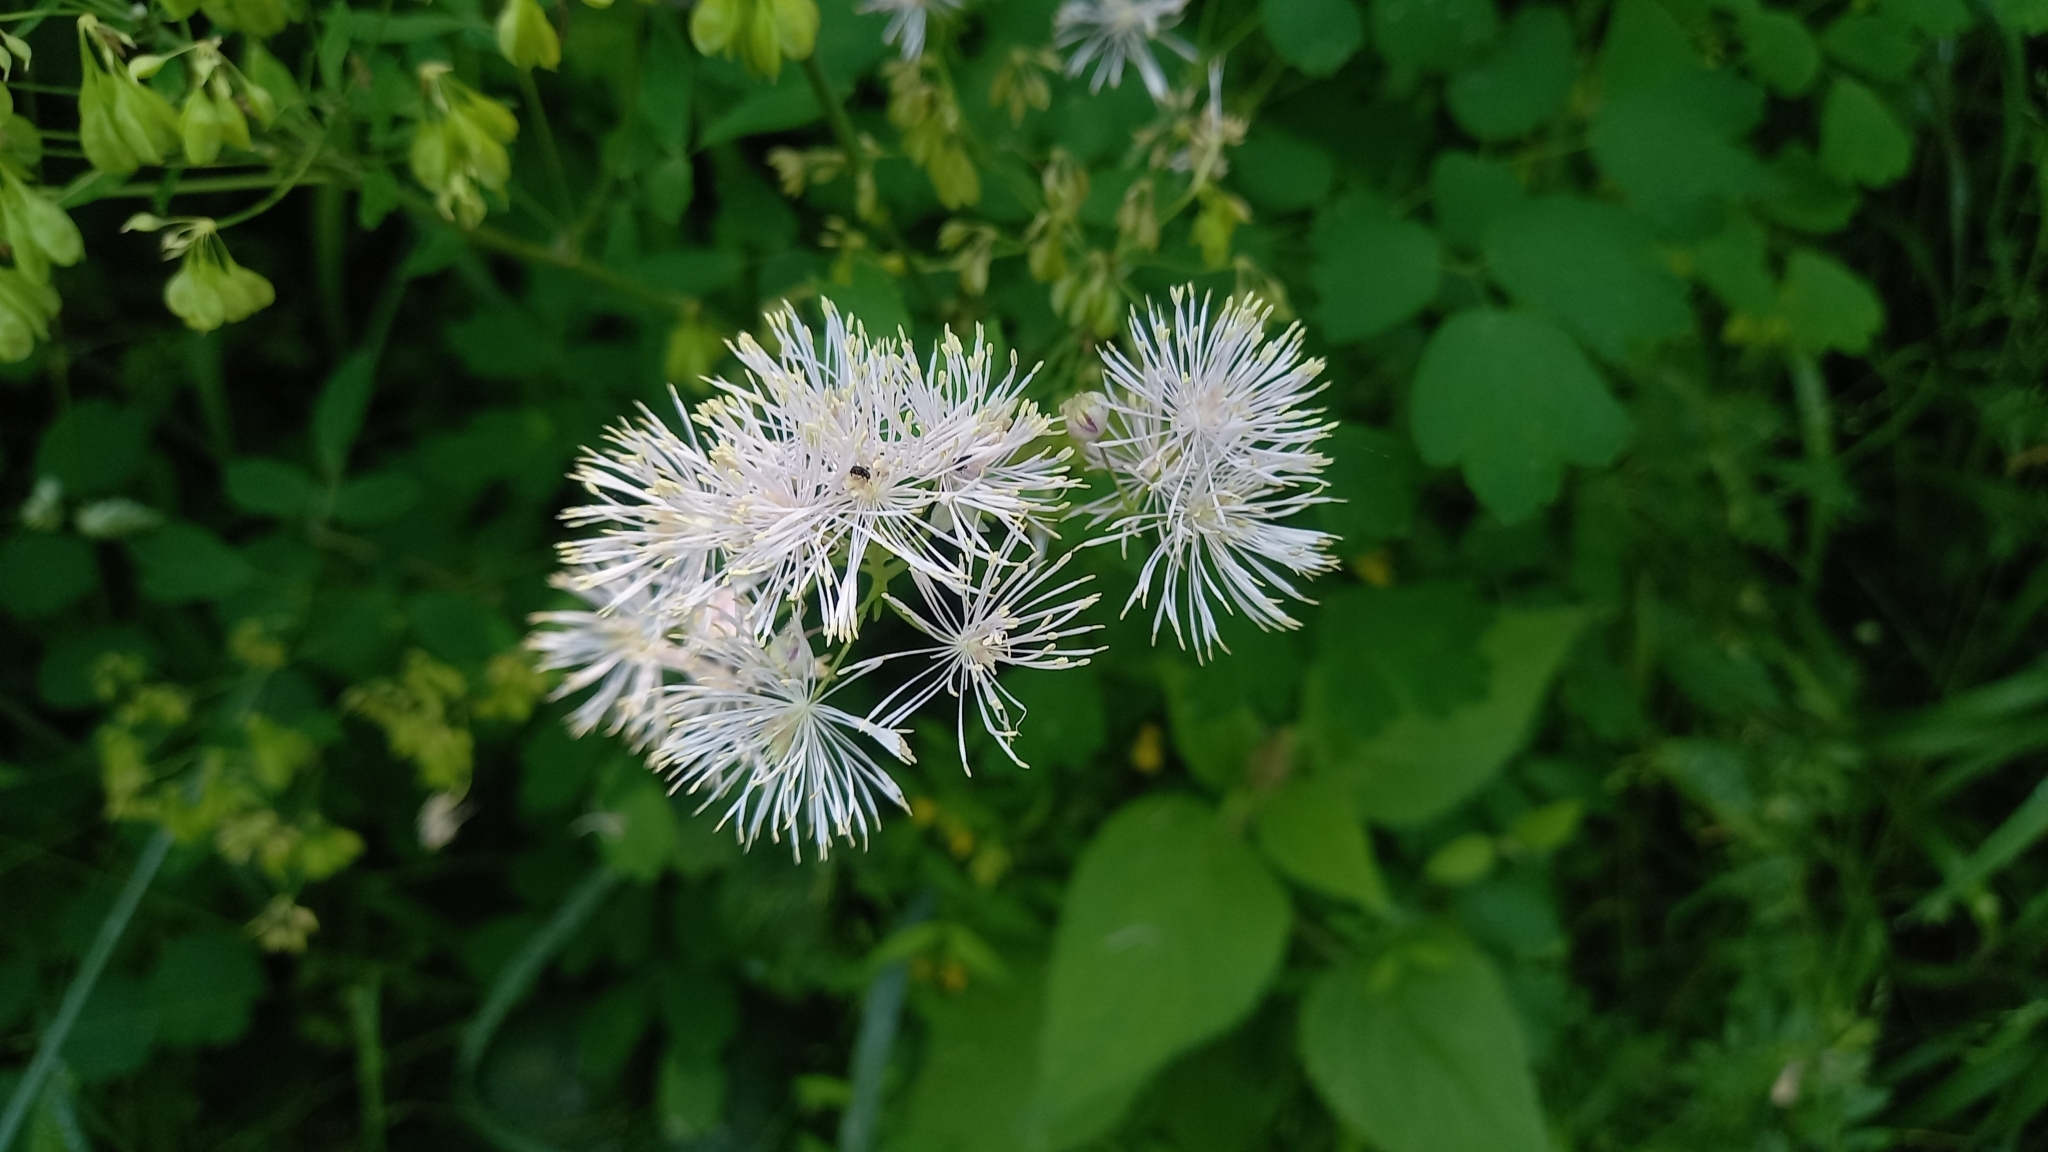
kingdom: Plantae
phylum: Tracheophyta
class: Magnoliopsida
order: Ranunculales
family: Ranunculaceae
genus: Thalictrum
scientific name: Thalictrum aquilegiifolium
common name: French meadow-rue
